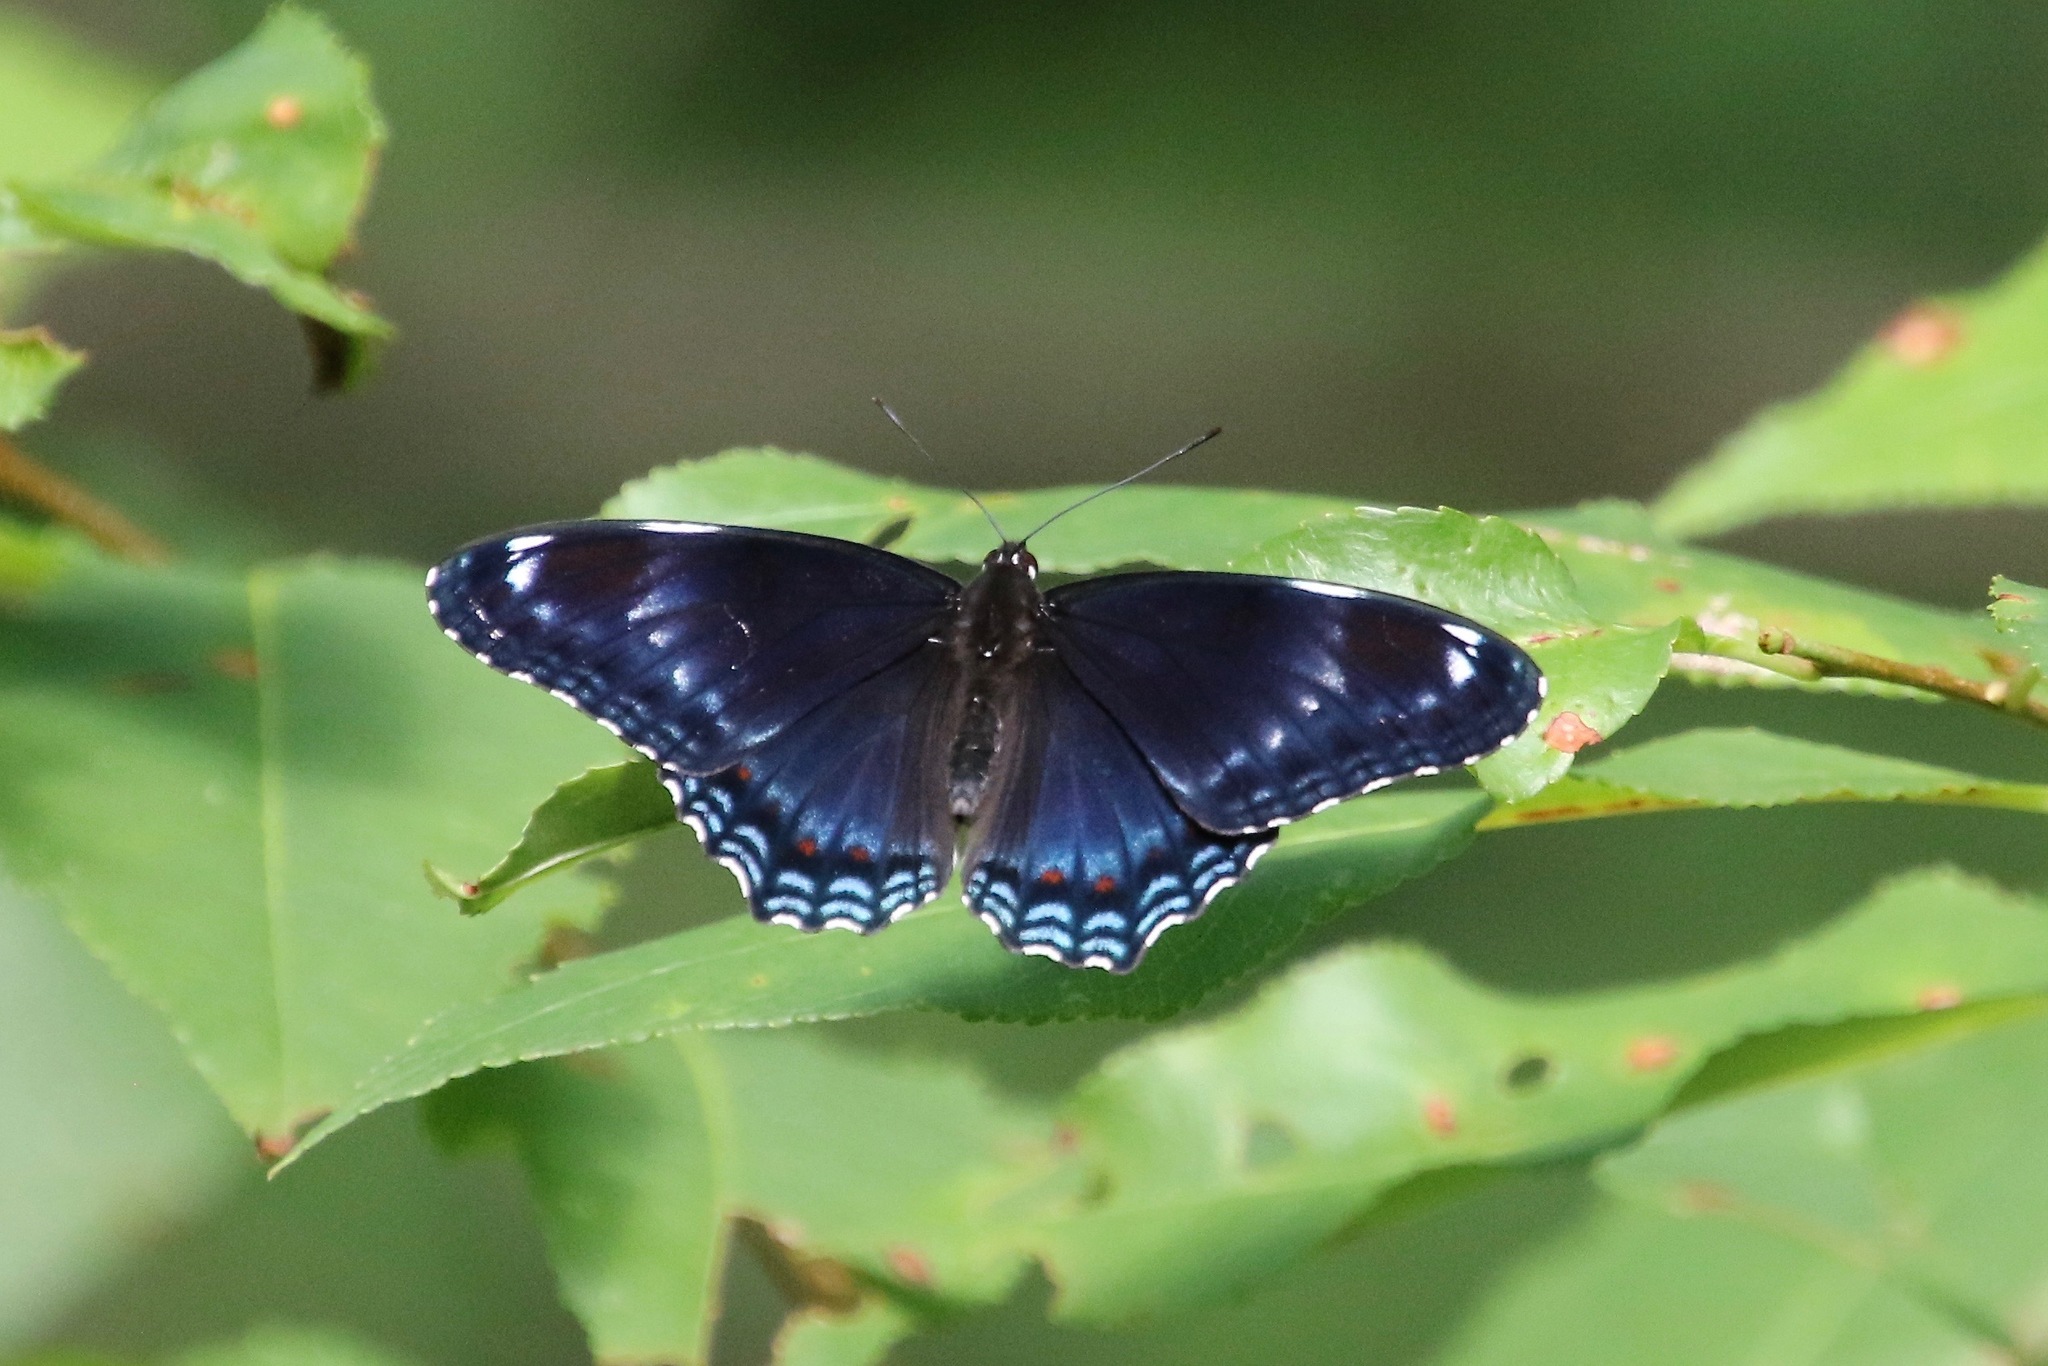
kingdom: Animalia
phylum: Arthropoda
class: Insecta
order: Lepidoptera
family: Nymphalidae
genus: Limenitis
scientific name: Limenitis arthemis
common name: Red-spotted admiral
